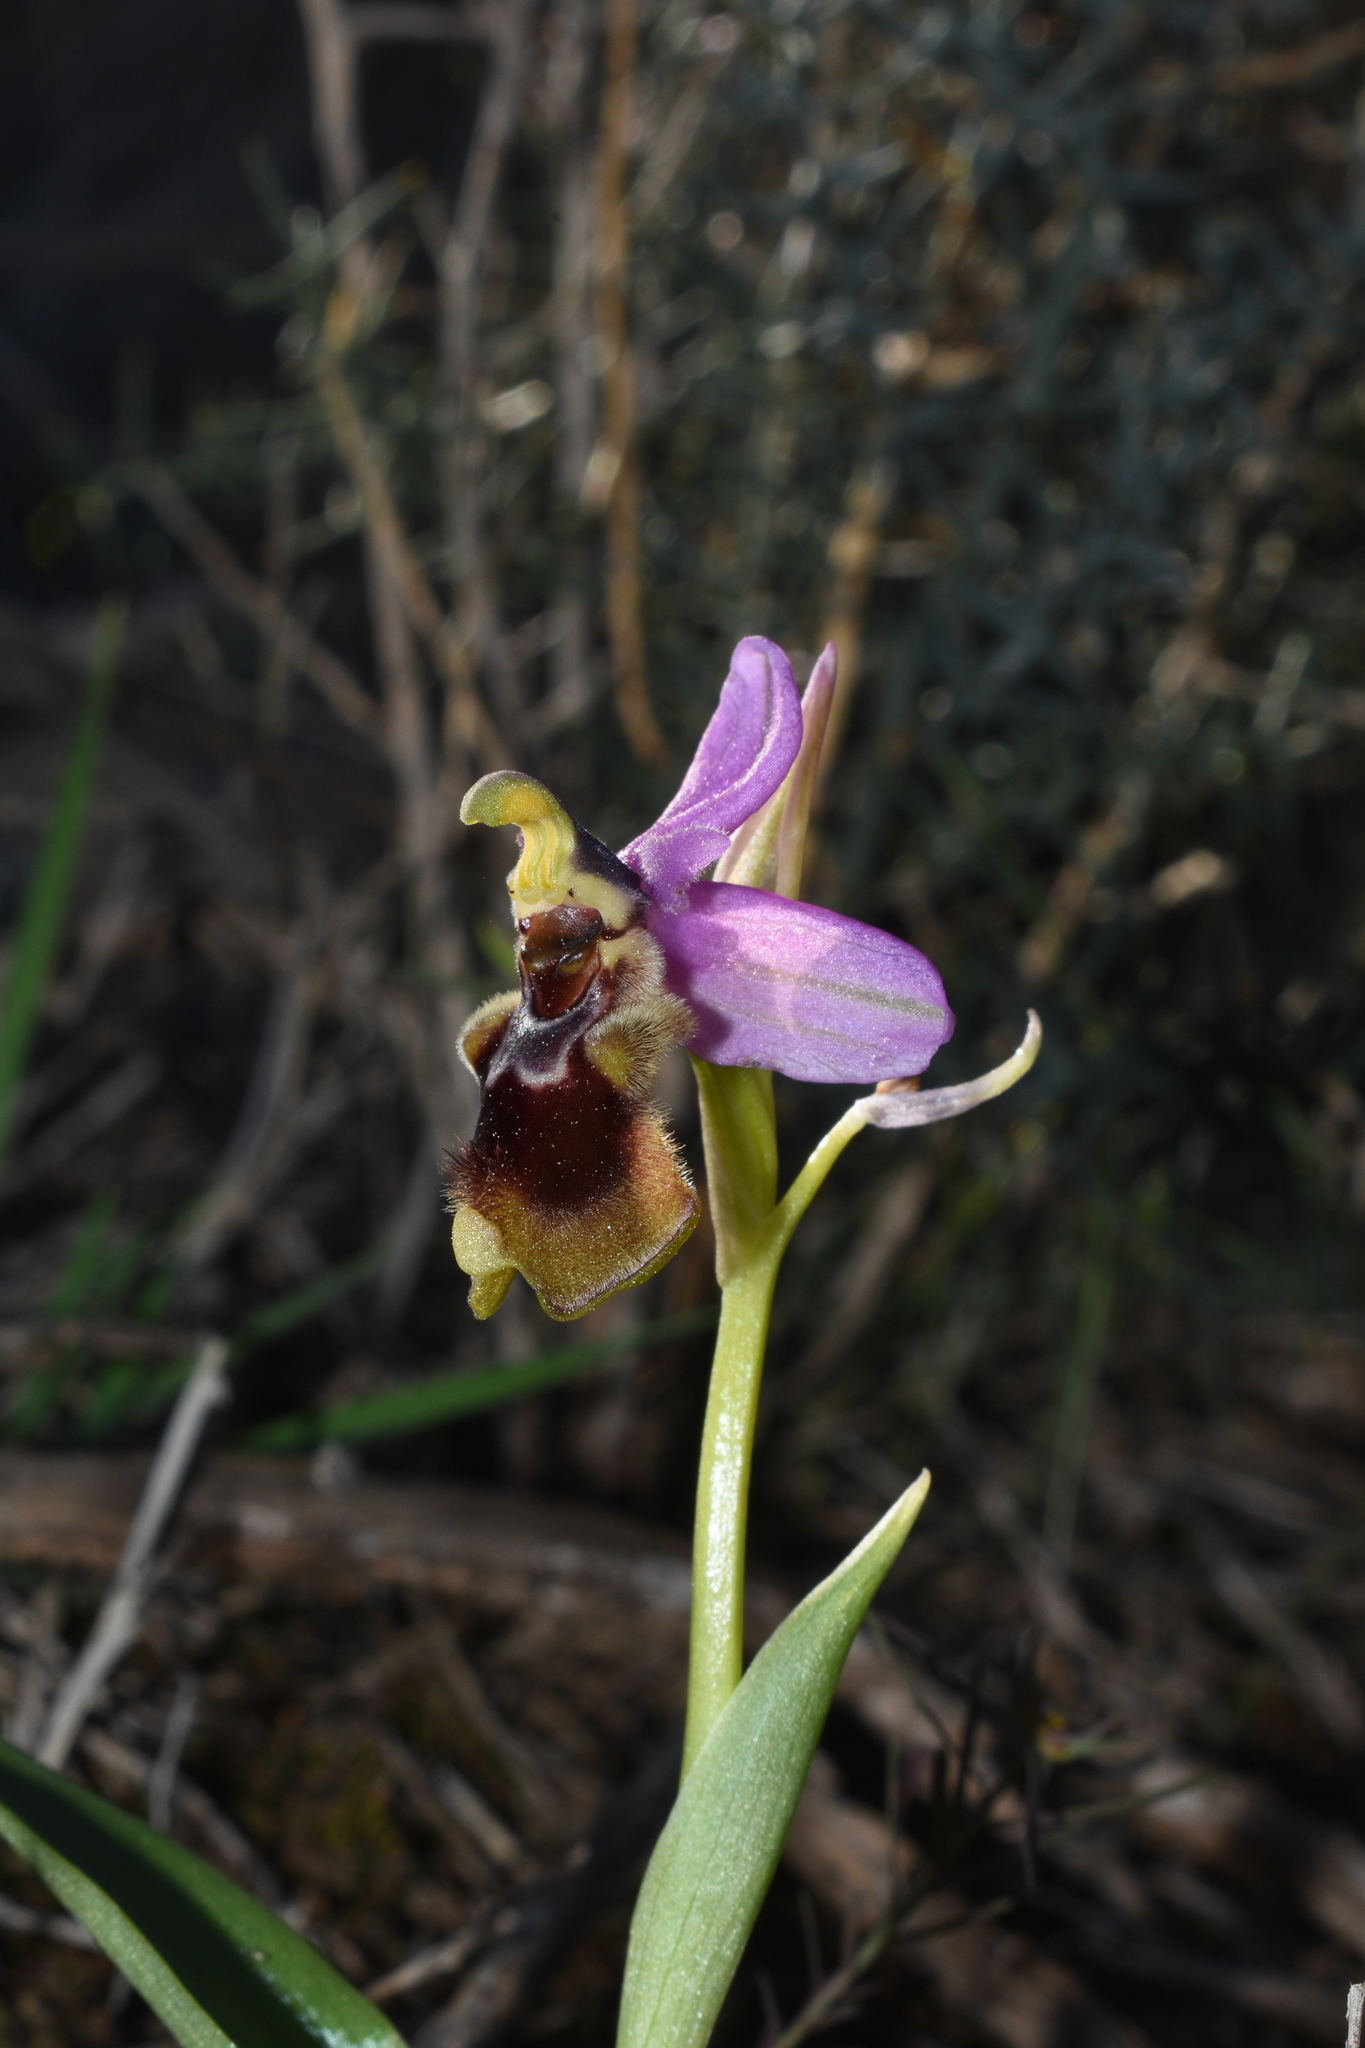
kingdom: Plantae
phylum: Tracheophyta
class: Liliopsida
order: Asparagales
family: Orchidaceae
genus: Ophrys
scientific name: Ophrys tenthredinifera
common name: Sawfly orchid
